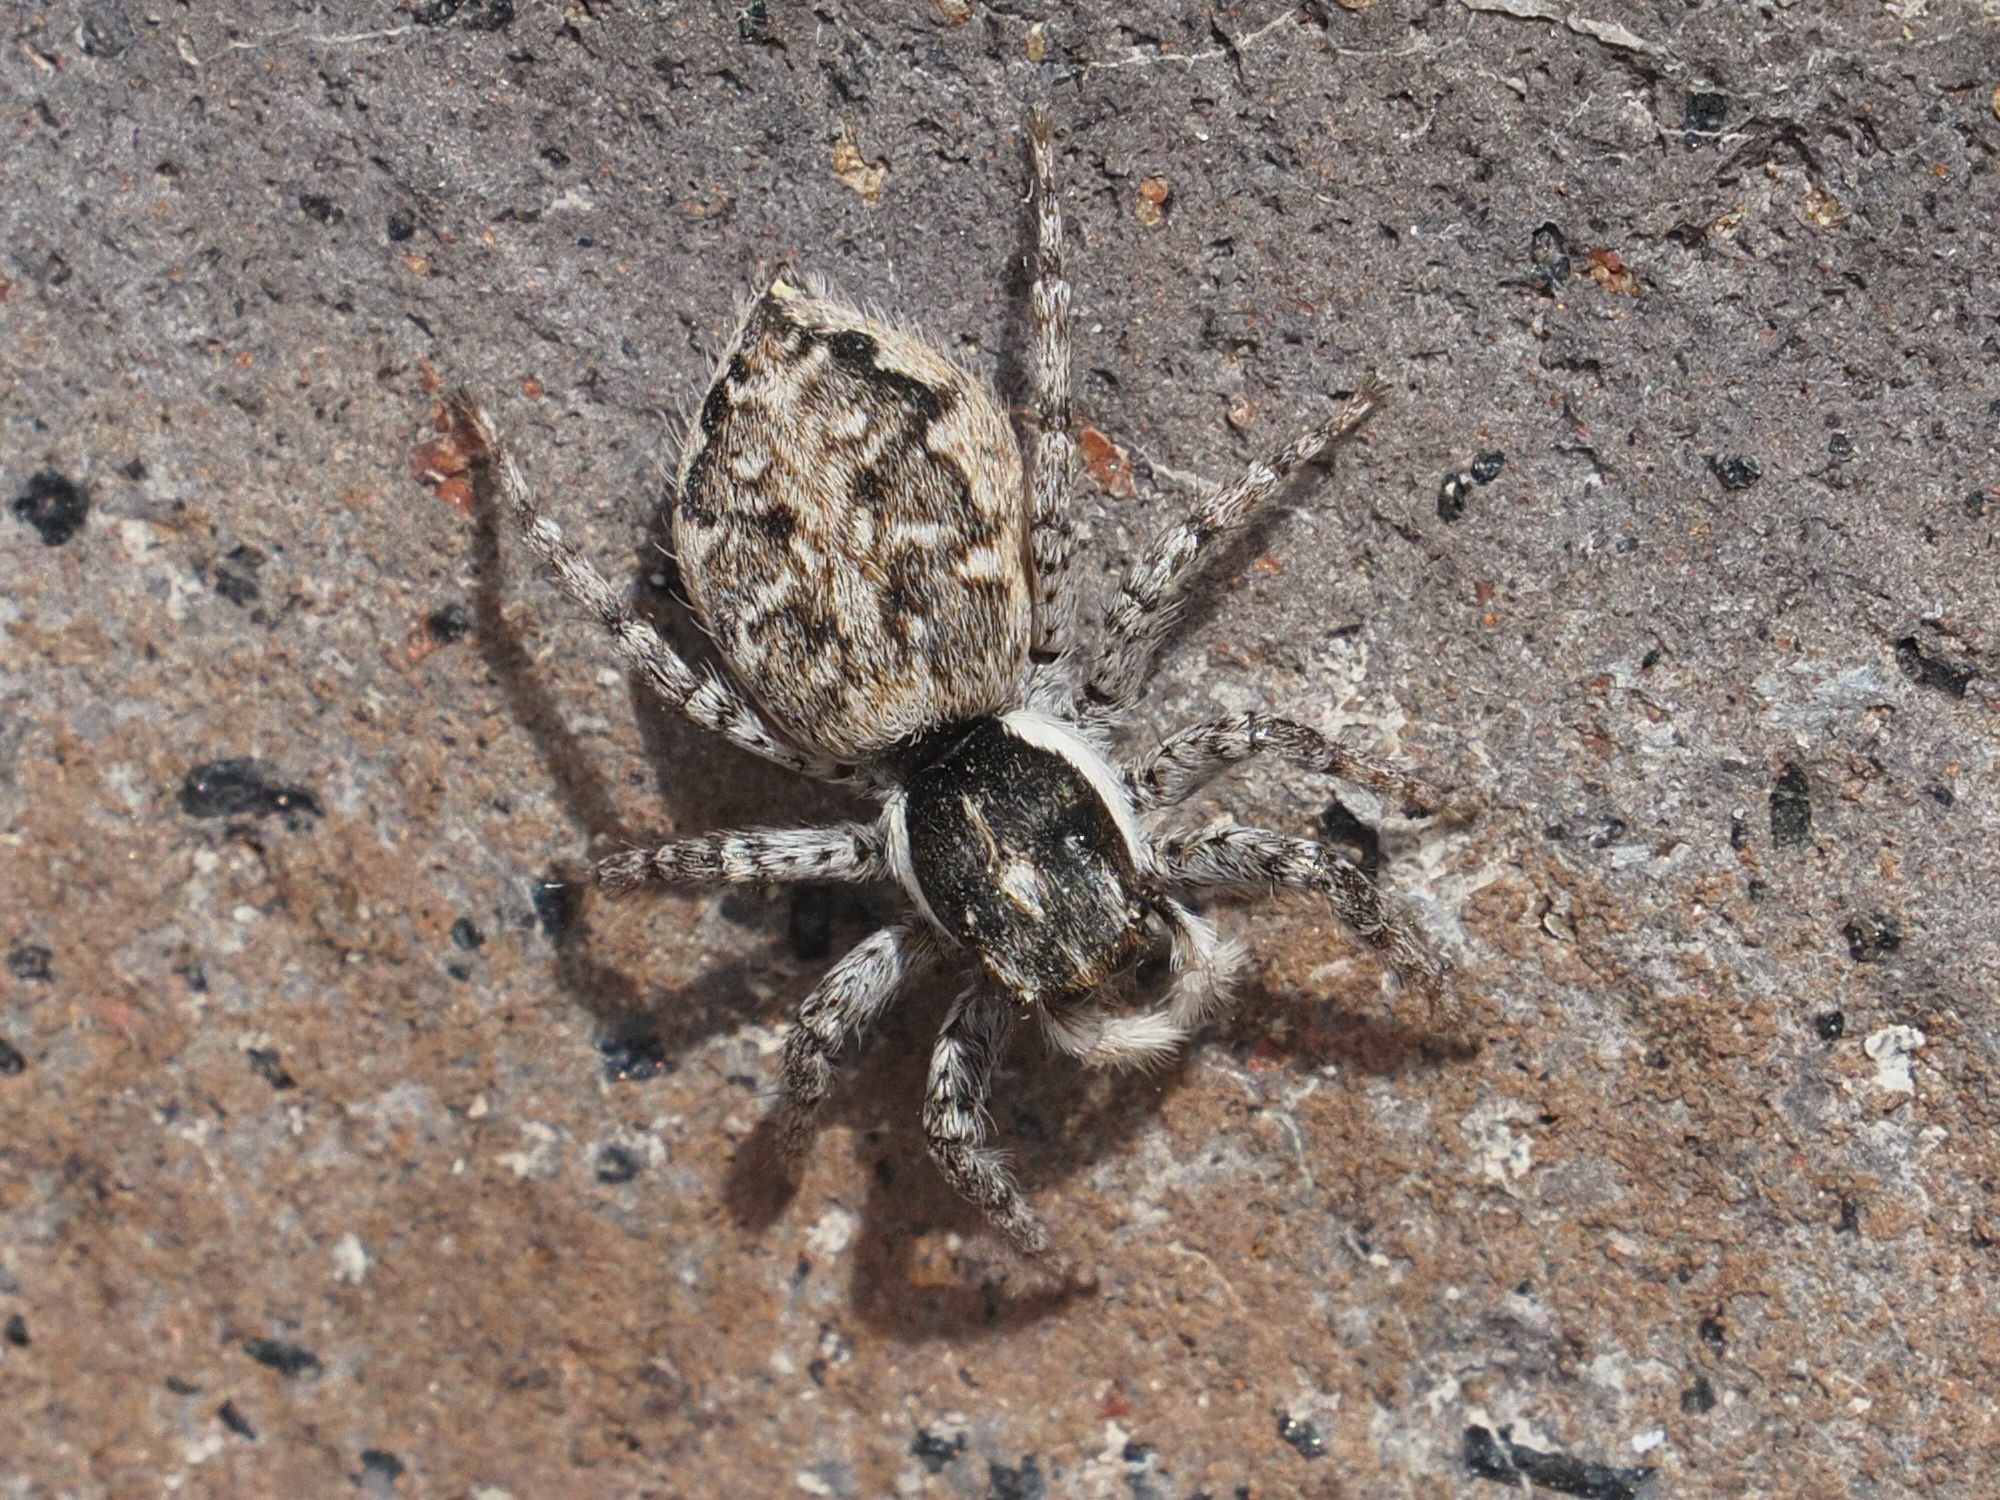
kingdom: Animalia
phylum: Arthropoda
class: Arachnida
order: Araneae
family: Salticidae
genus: Menemerus
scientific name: Menemerus semilimbatus
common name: Jumping spider
